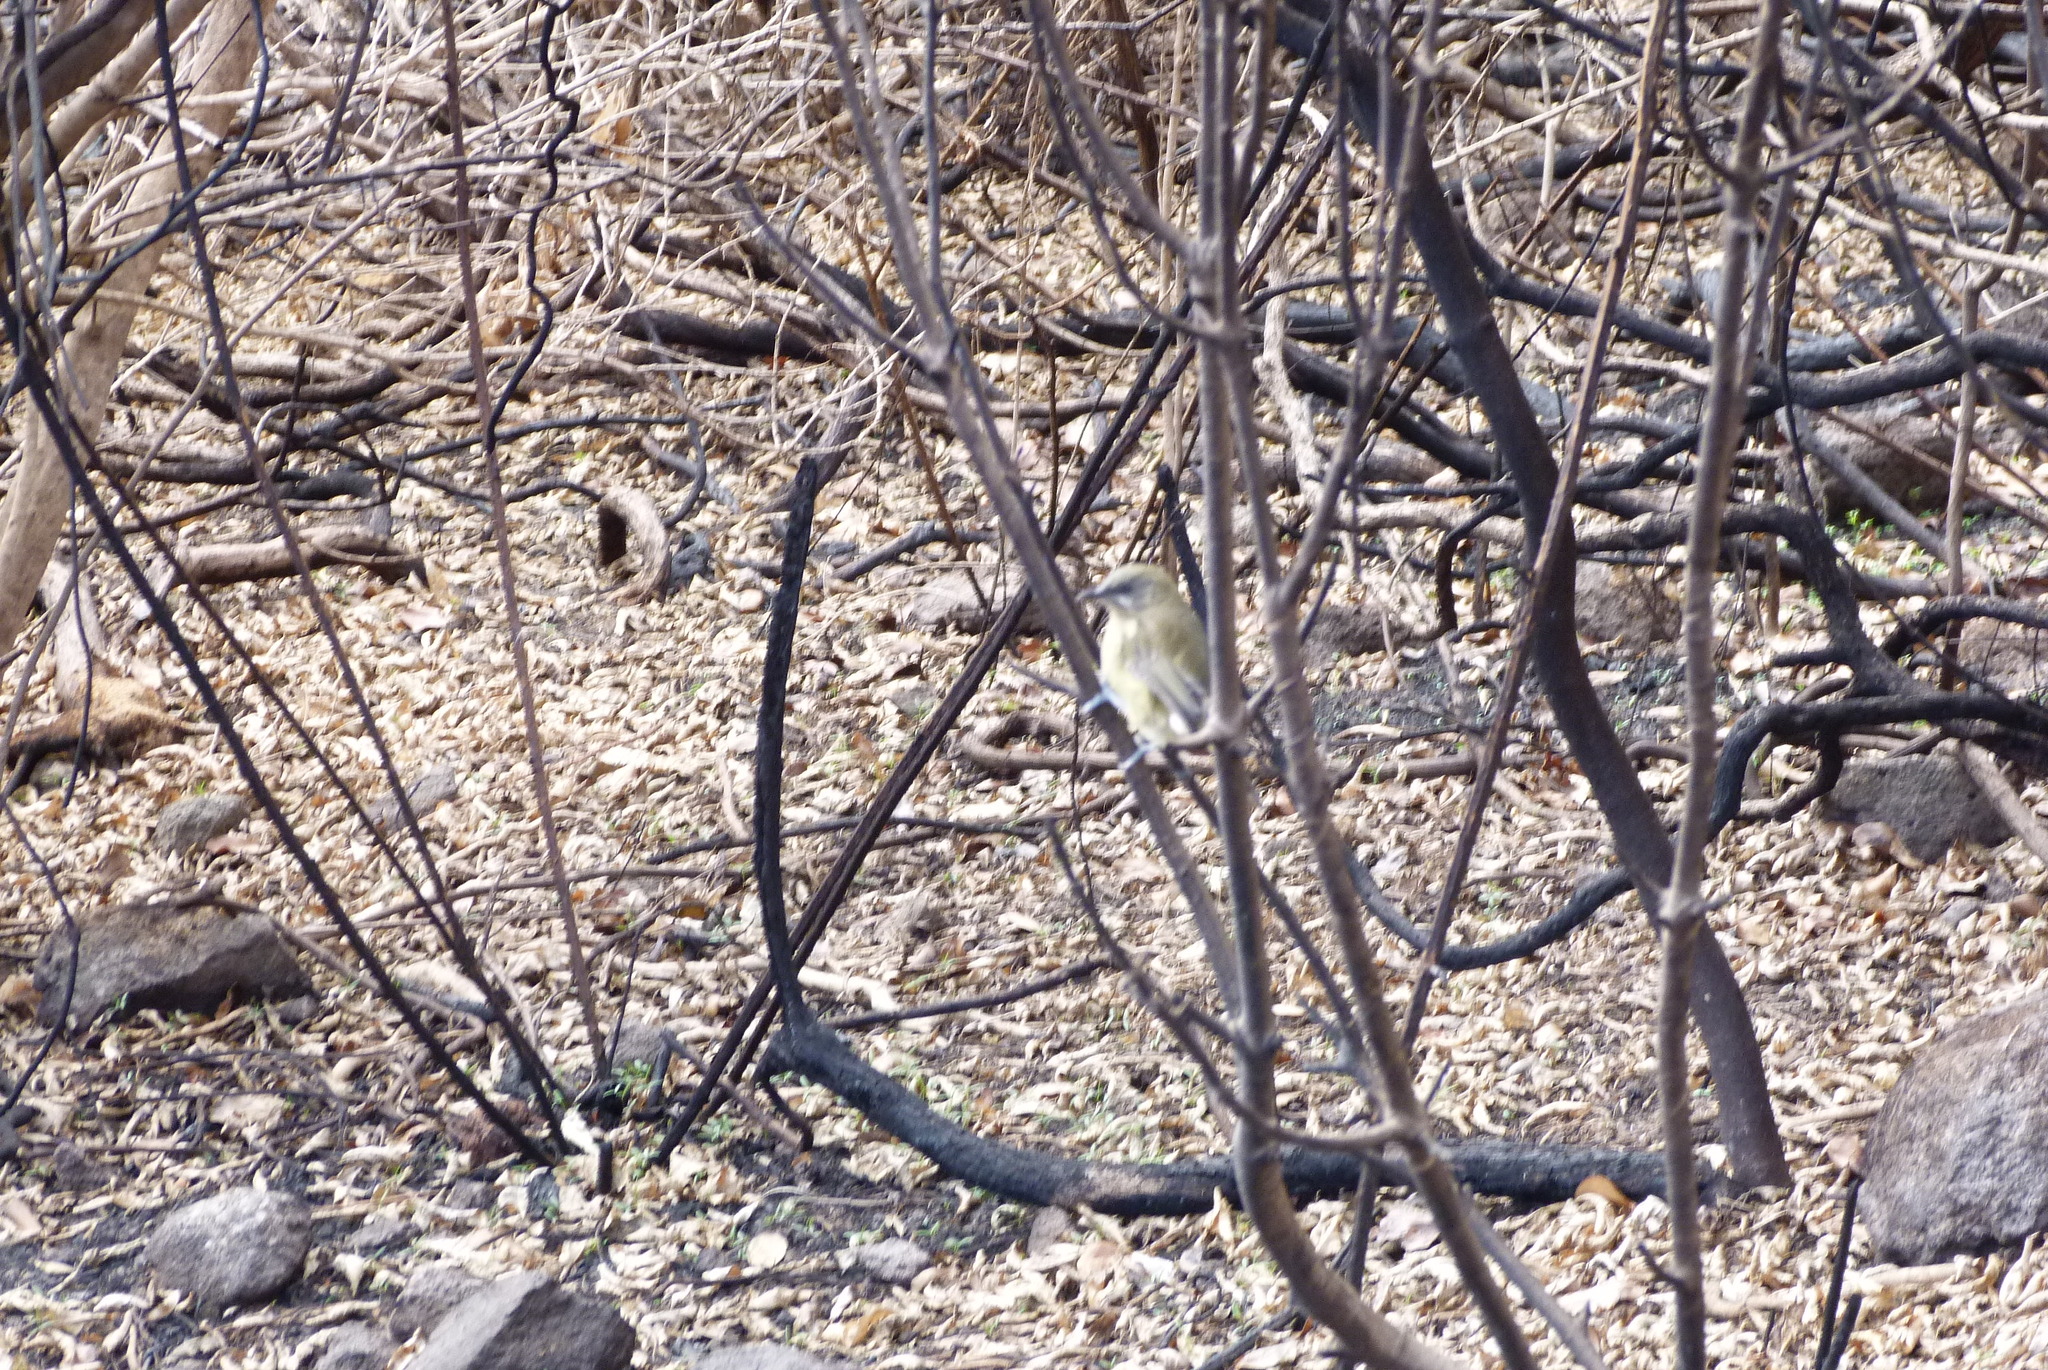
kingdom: Animalia
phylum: Chordata
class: Aves
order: Passeriformes
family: Meliphagidae
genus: Anthornis
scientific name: Anthornis melanura
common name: New zealand bellbird
